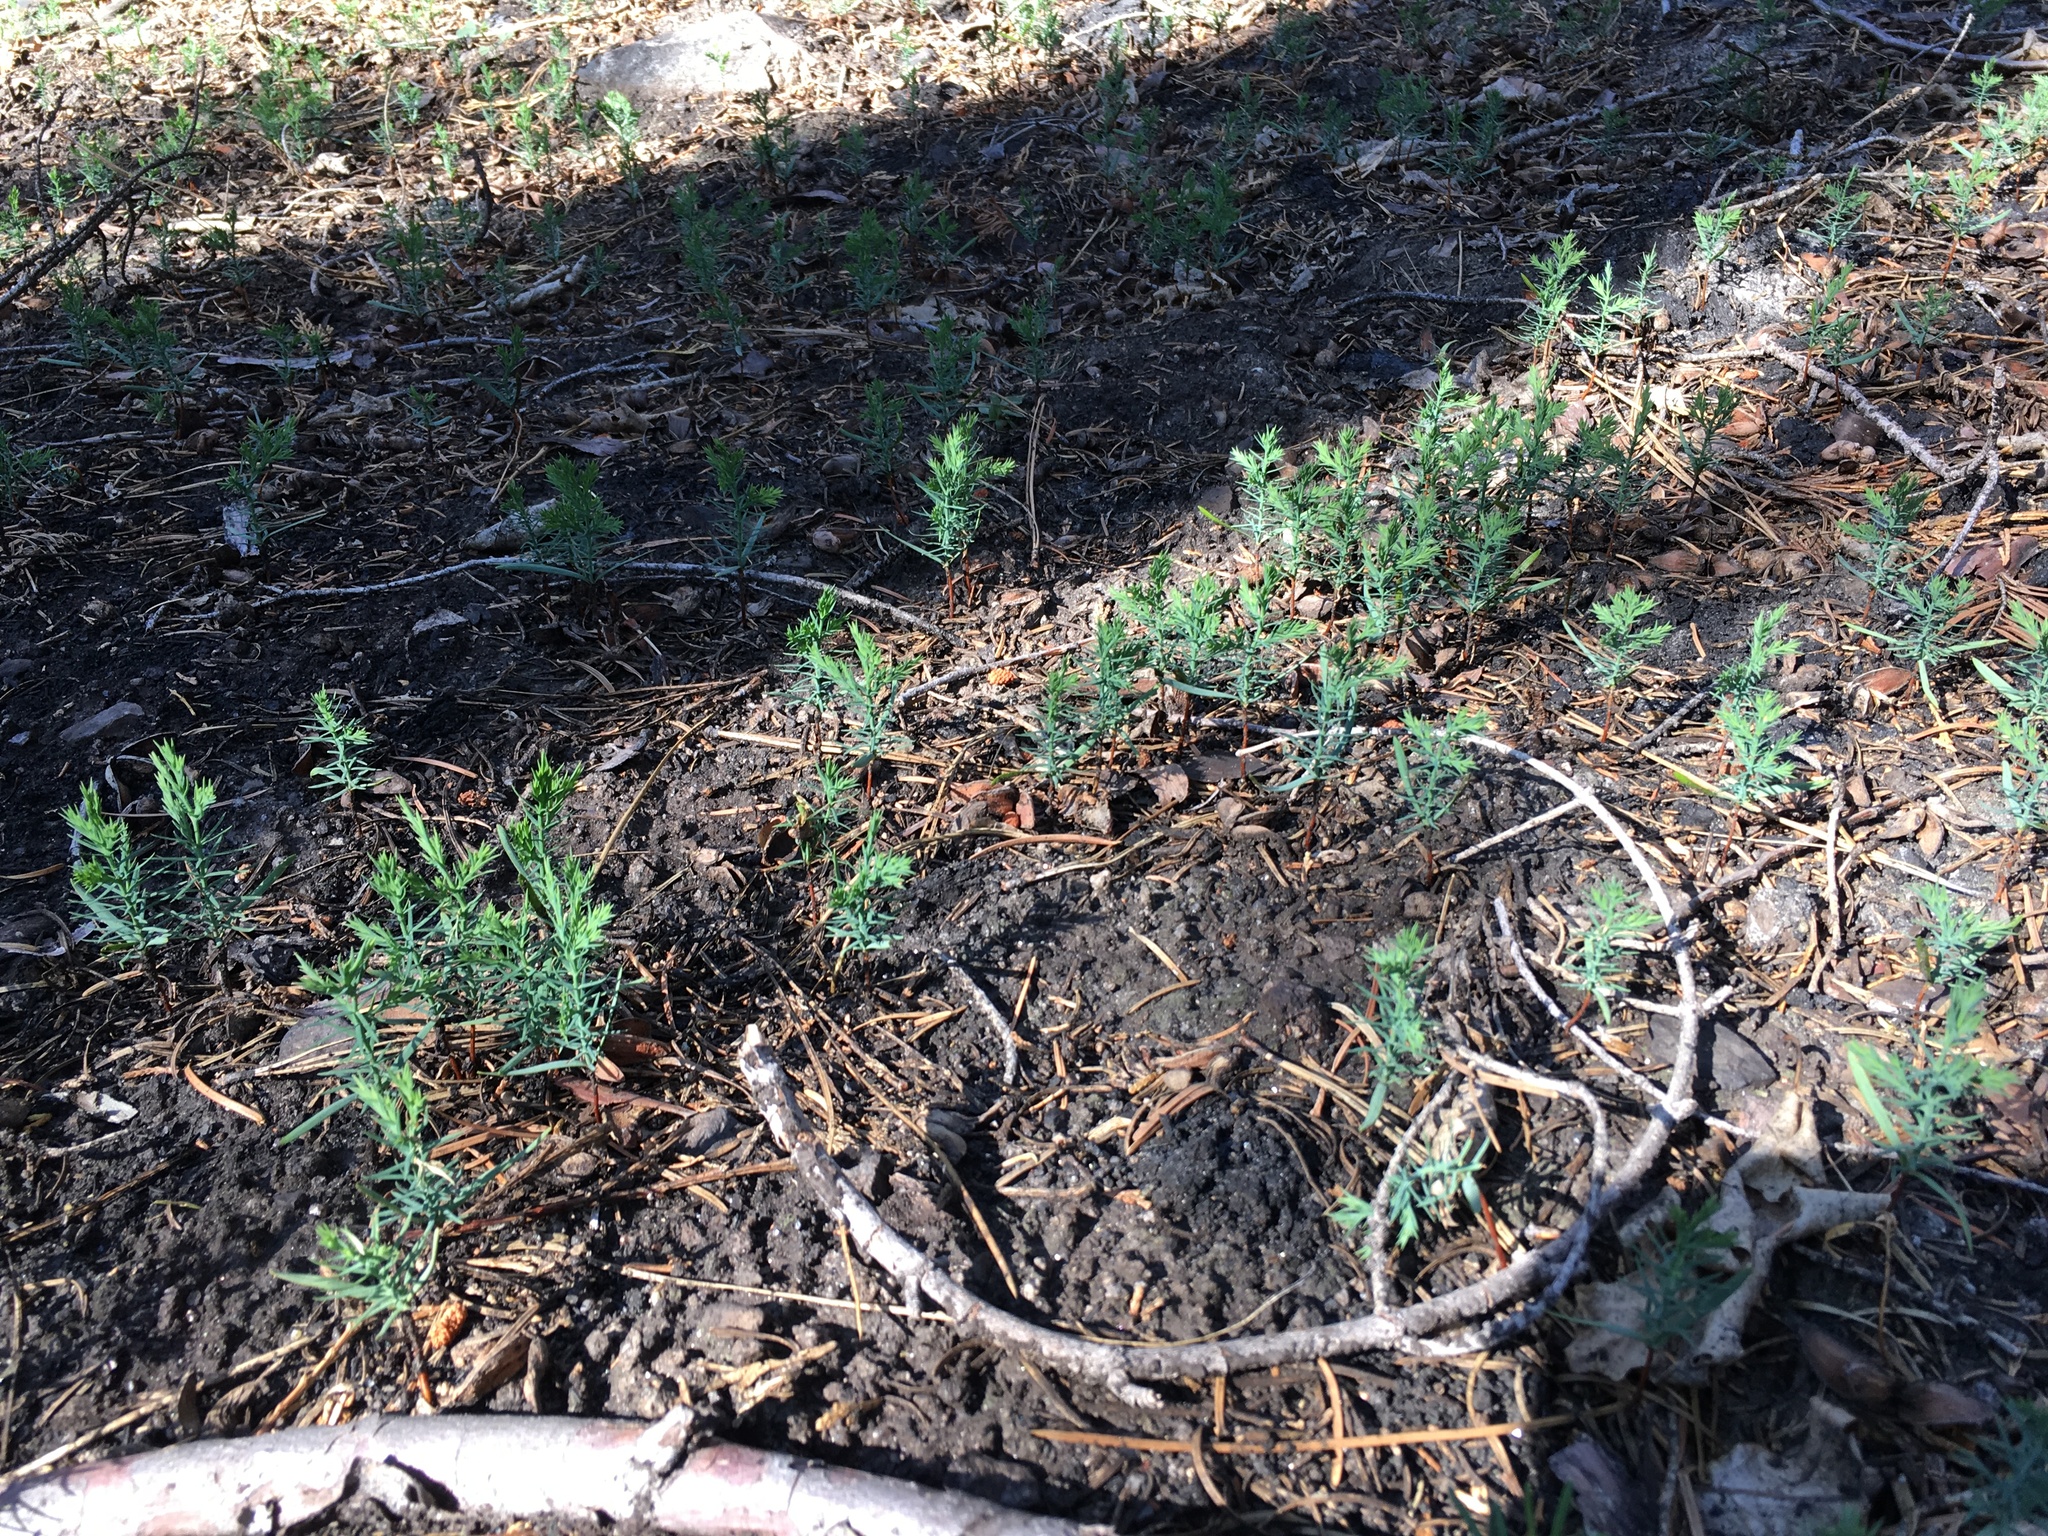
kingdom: Plantae
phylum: Tracheophyta
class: Pinopsida
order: Pinales
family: Cupressaceae
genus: Calocedrus
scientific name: Calocedrus decurrens
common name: Californian incense-cedar
